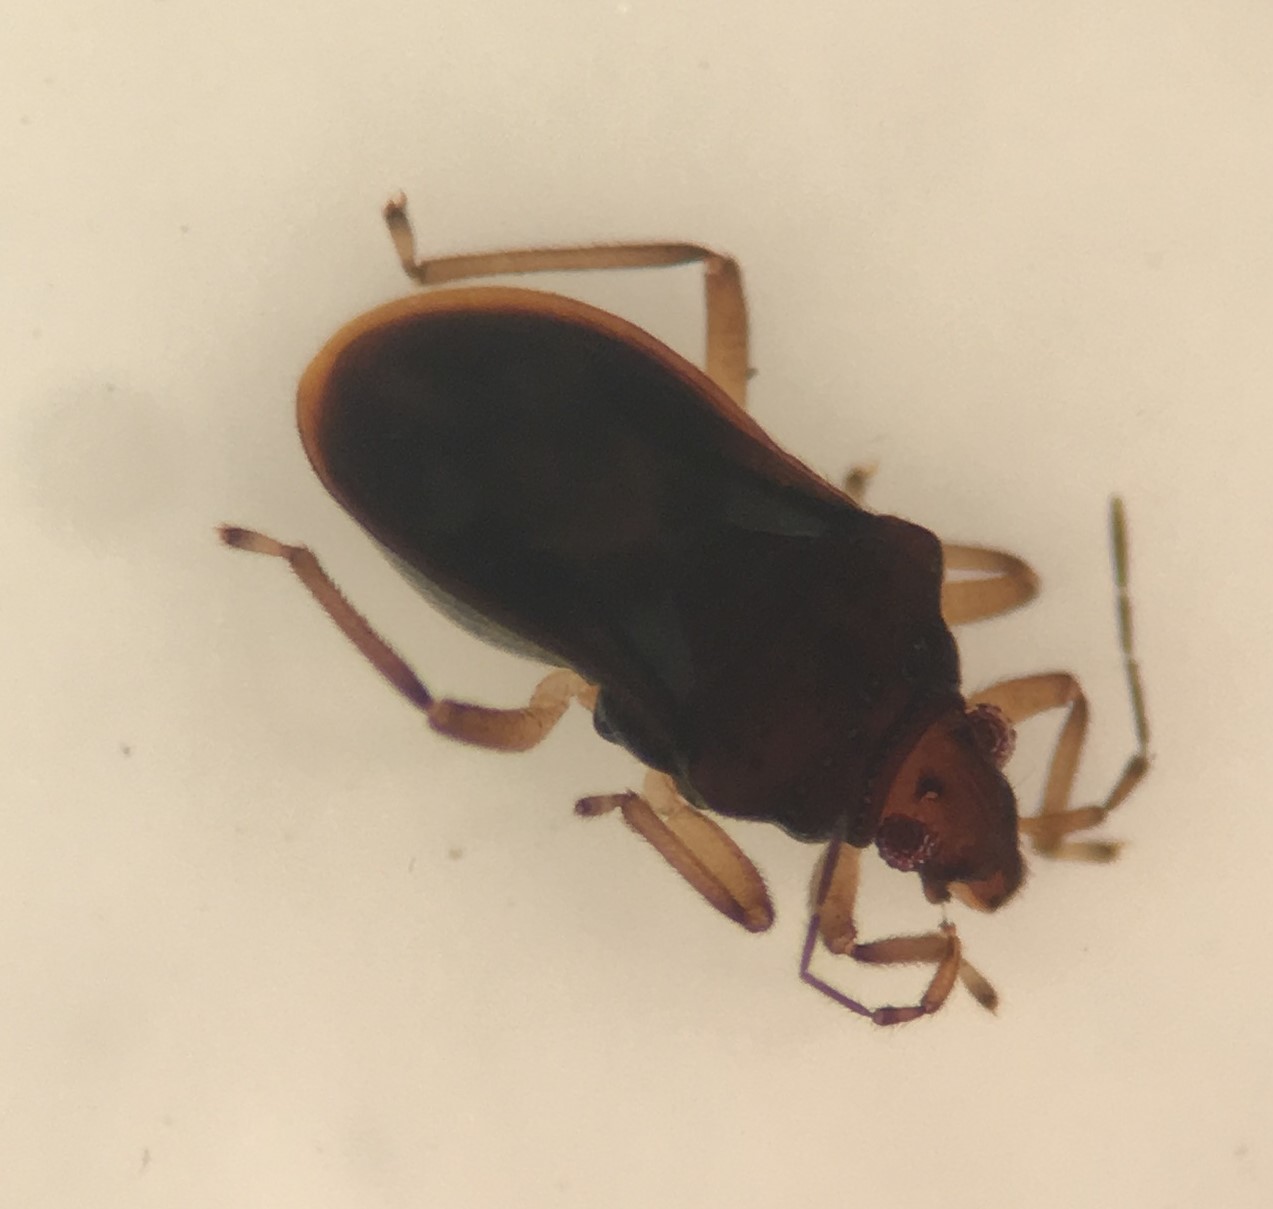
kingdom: Animalia
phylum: Arthropoda
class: Insecta
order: Hemiptera
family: Hebridae
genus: Hebrus
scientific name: Hebrus burmeisteri
